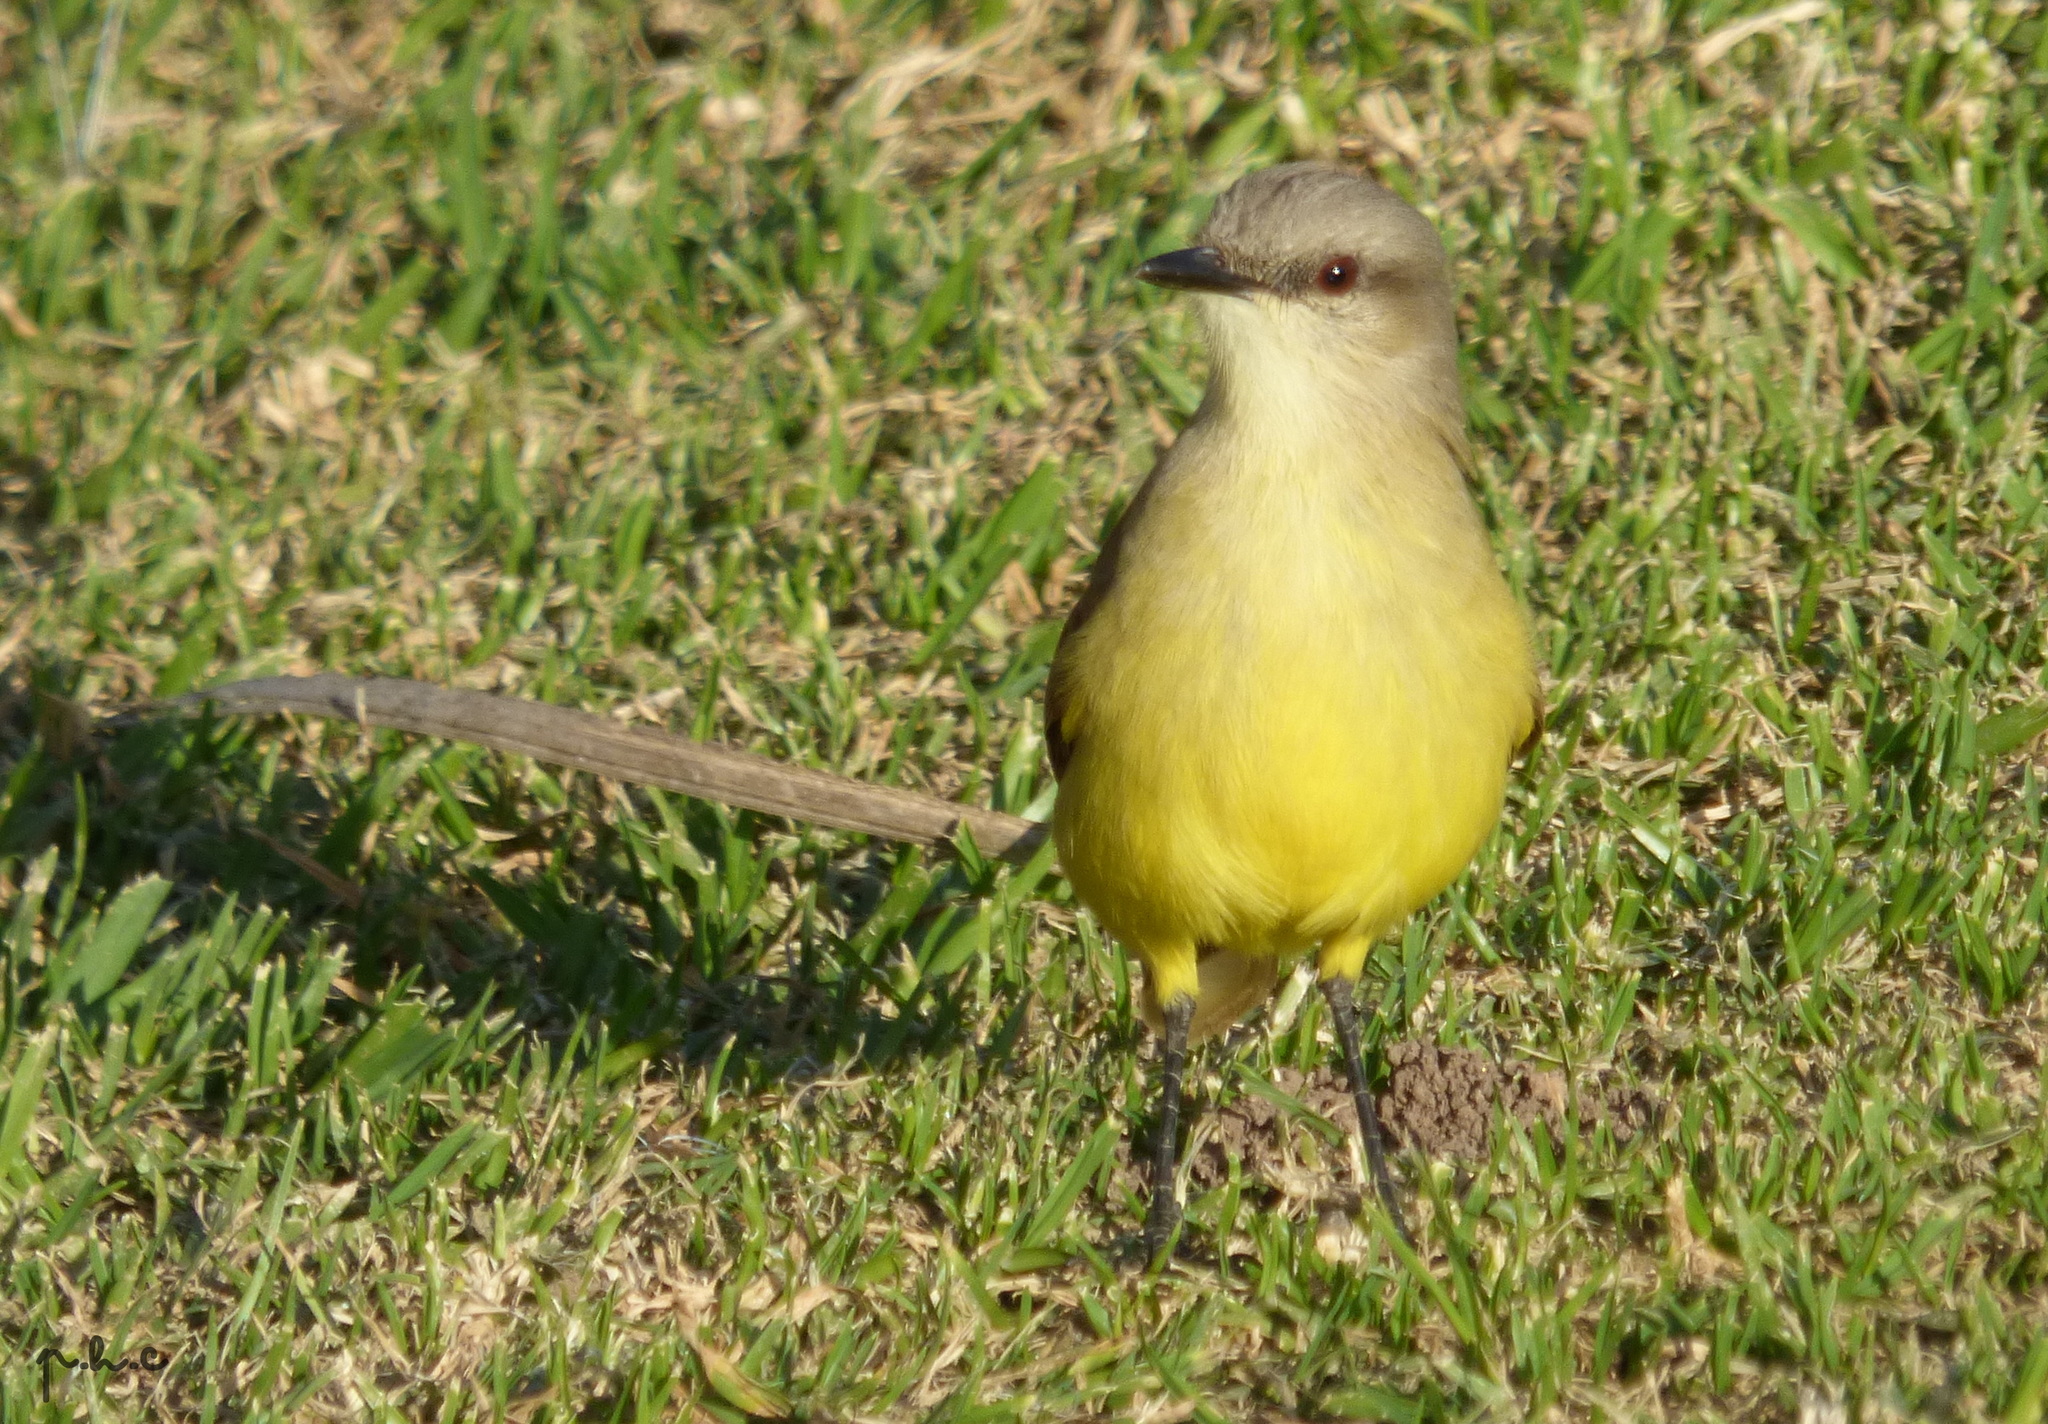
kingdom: Animalia
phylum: Chordata
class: Aves
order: Passeriformes
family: Tyrannidae
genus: Machetornis
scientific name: Machetornis rixosa
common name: Cattle tyrant
